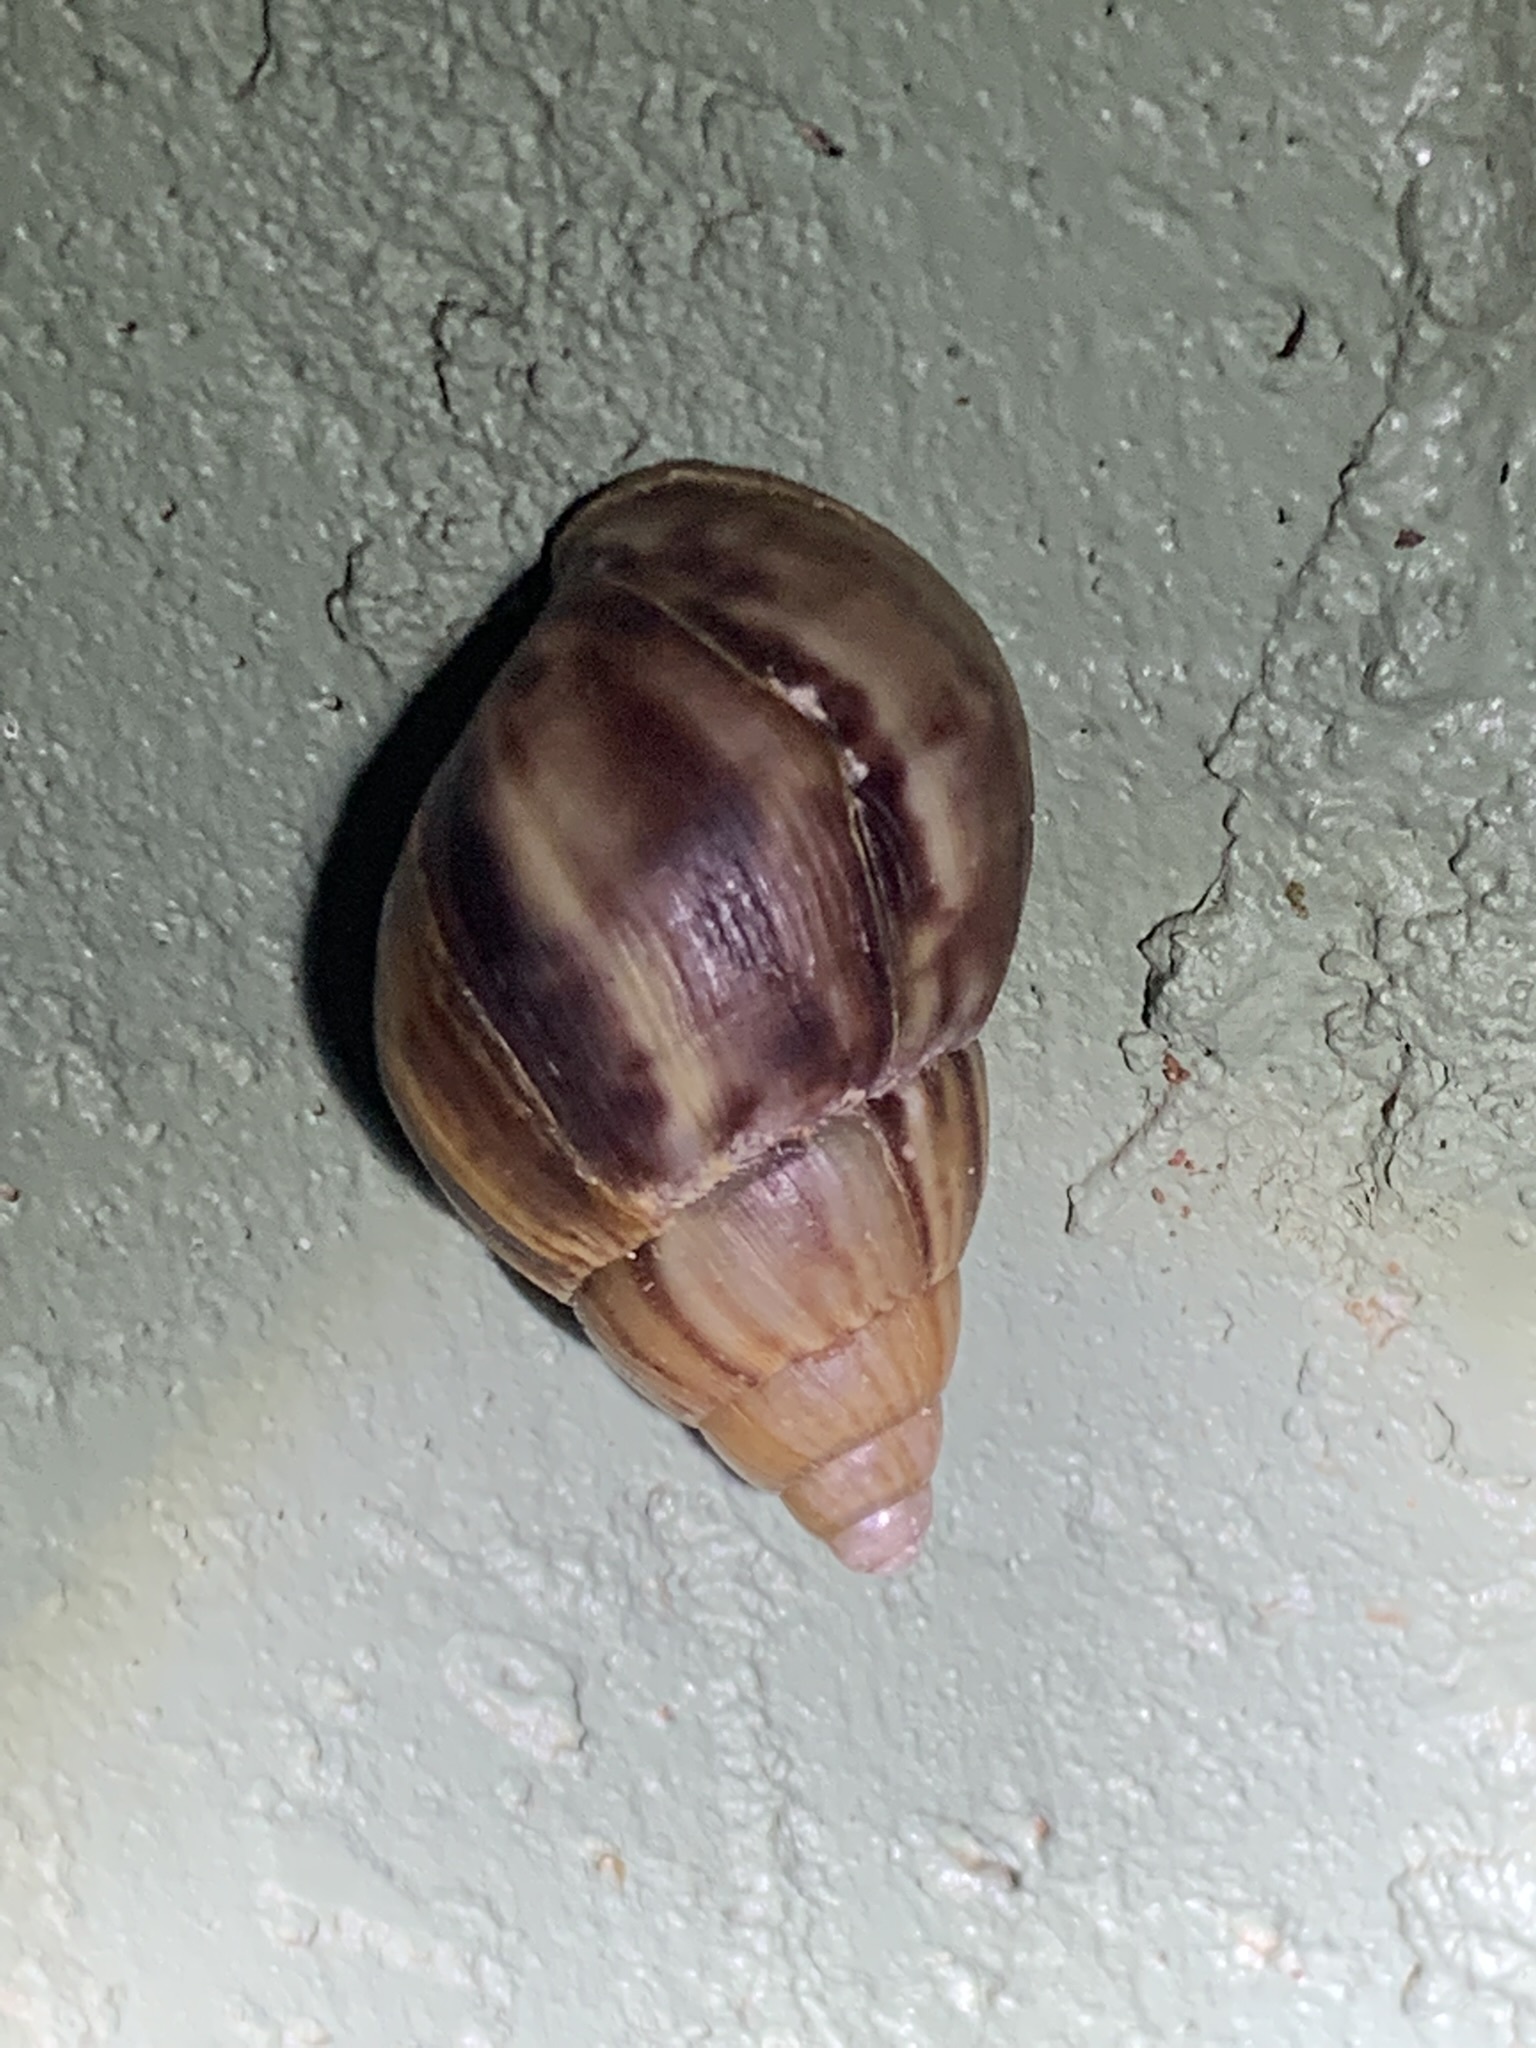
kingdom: Animalia
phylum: Mollusca
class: Gastropoda
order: Stylommatophora
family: Achatinidae
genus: Lissachatina
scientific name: Lissachatina fulica
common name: Giant african snail
